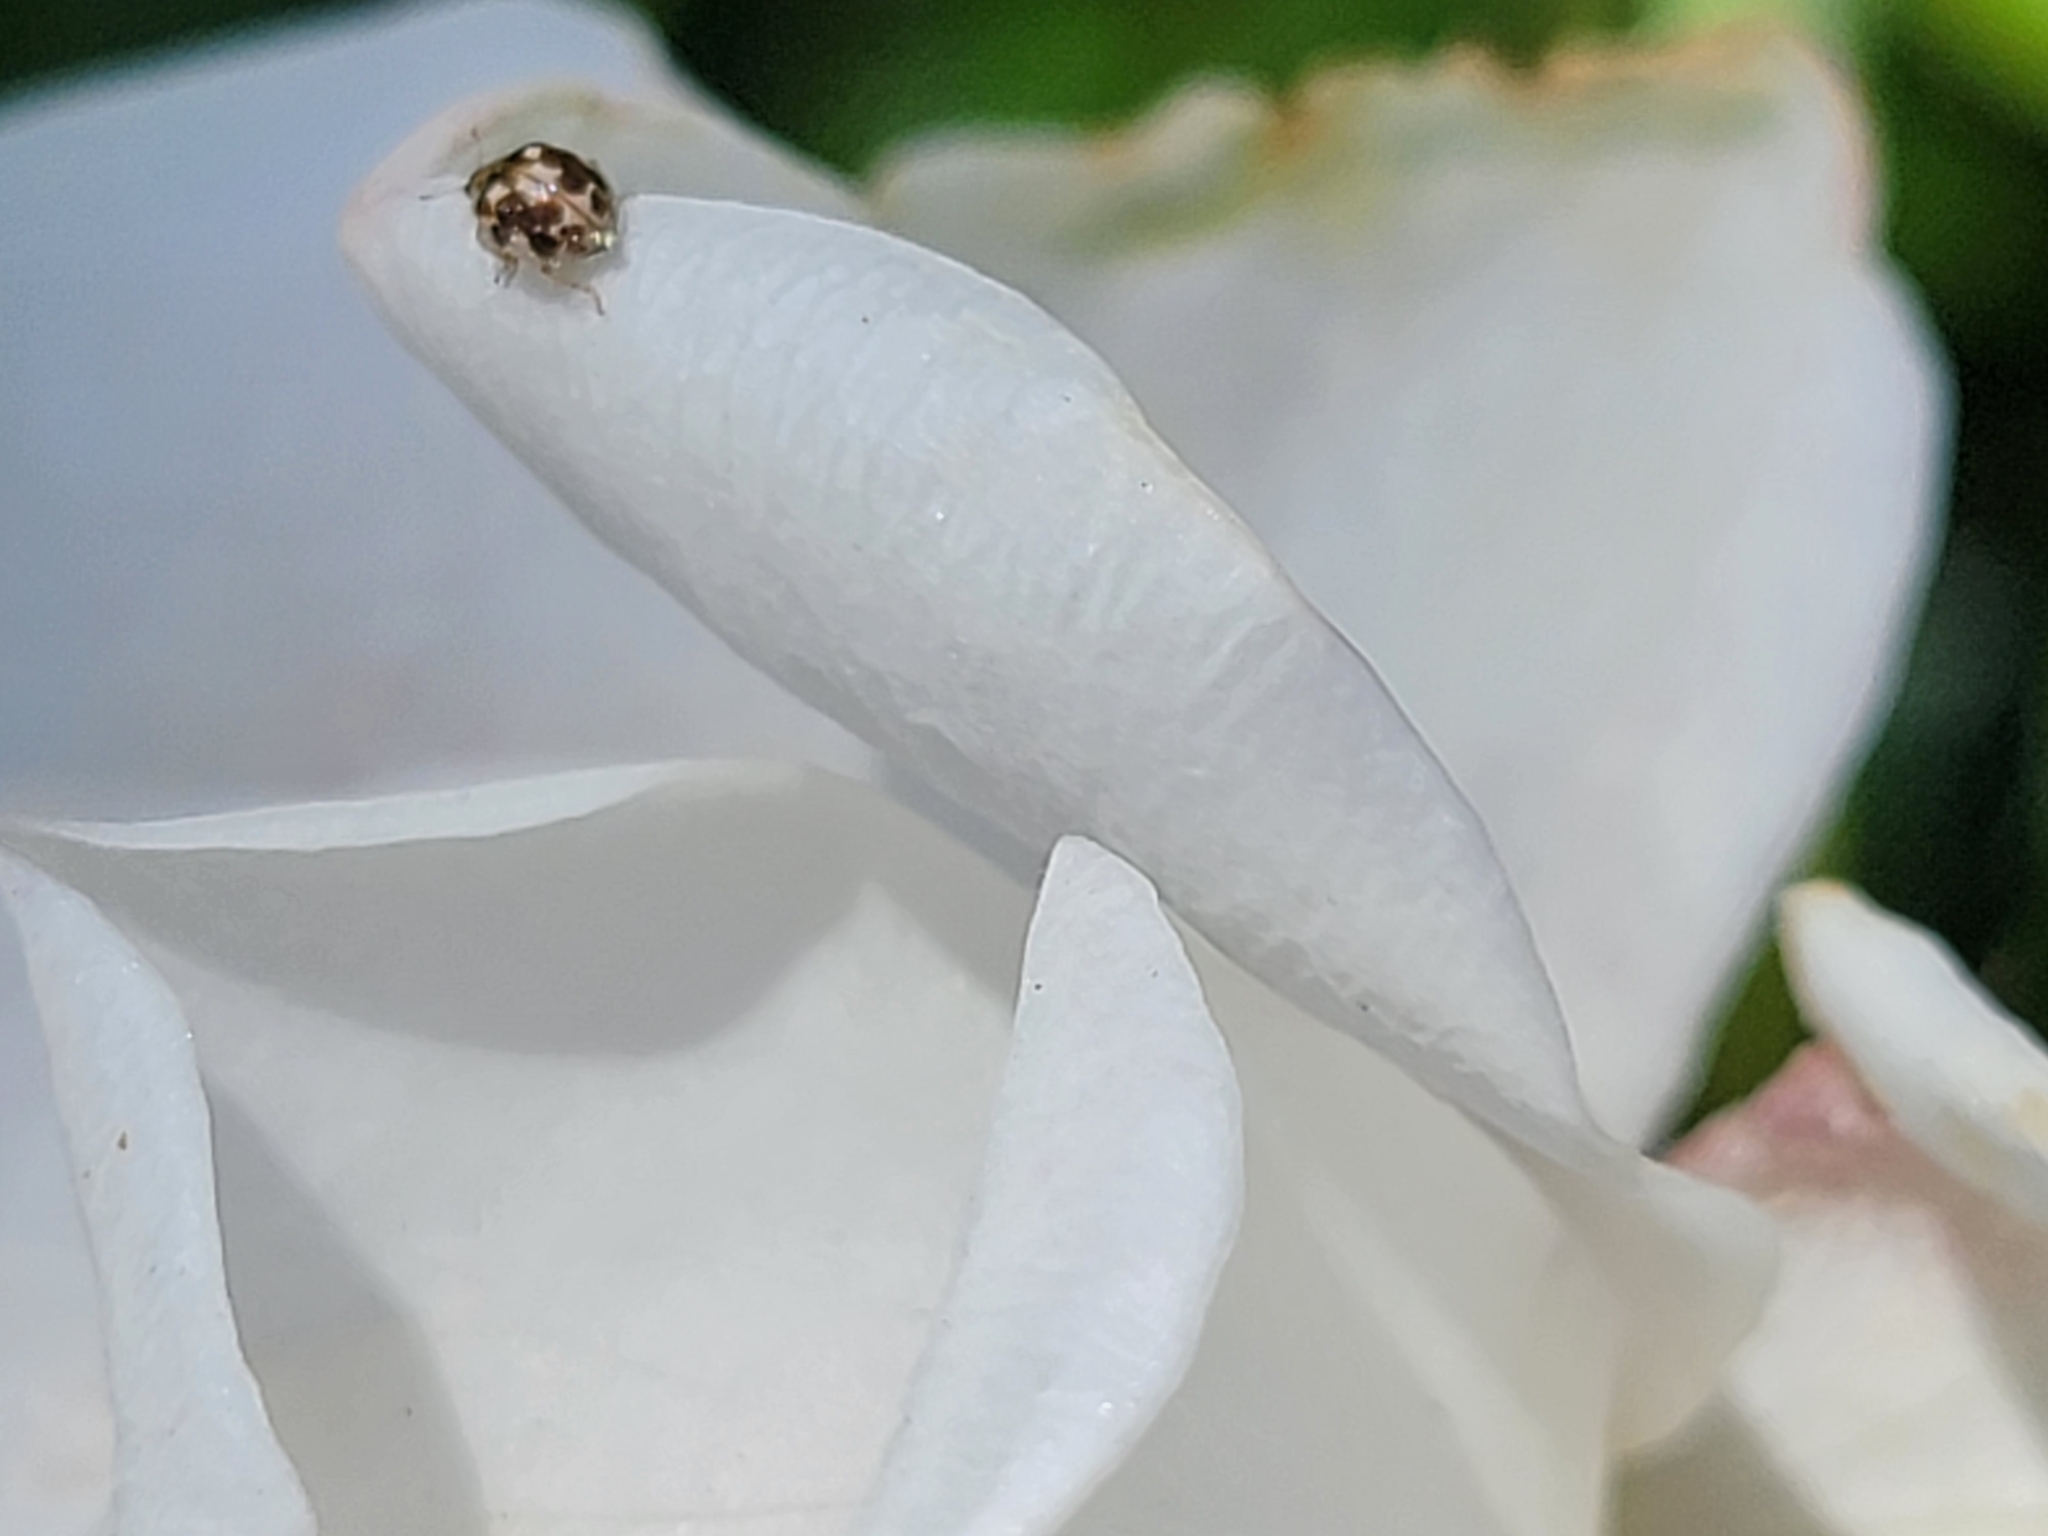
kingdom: Animalia
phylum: Arthropoda
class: Insecta
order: Coleoptera
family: Coccinellidae
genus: Psyllobora
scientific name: Psyllobora vigintimaculata
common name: Ladybird beetle
